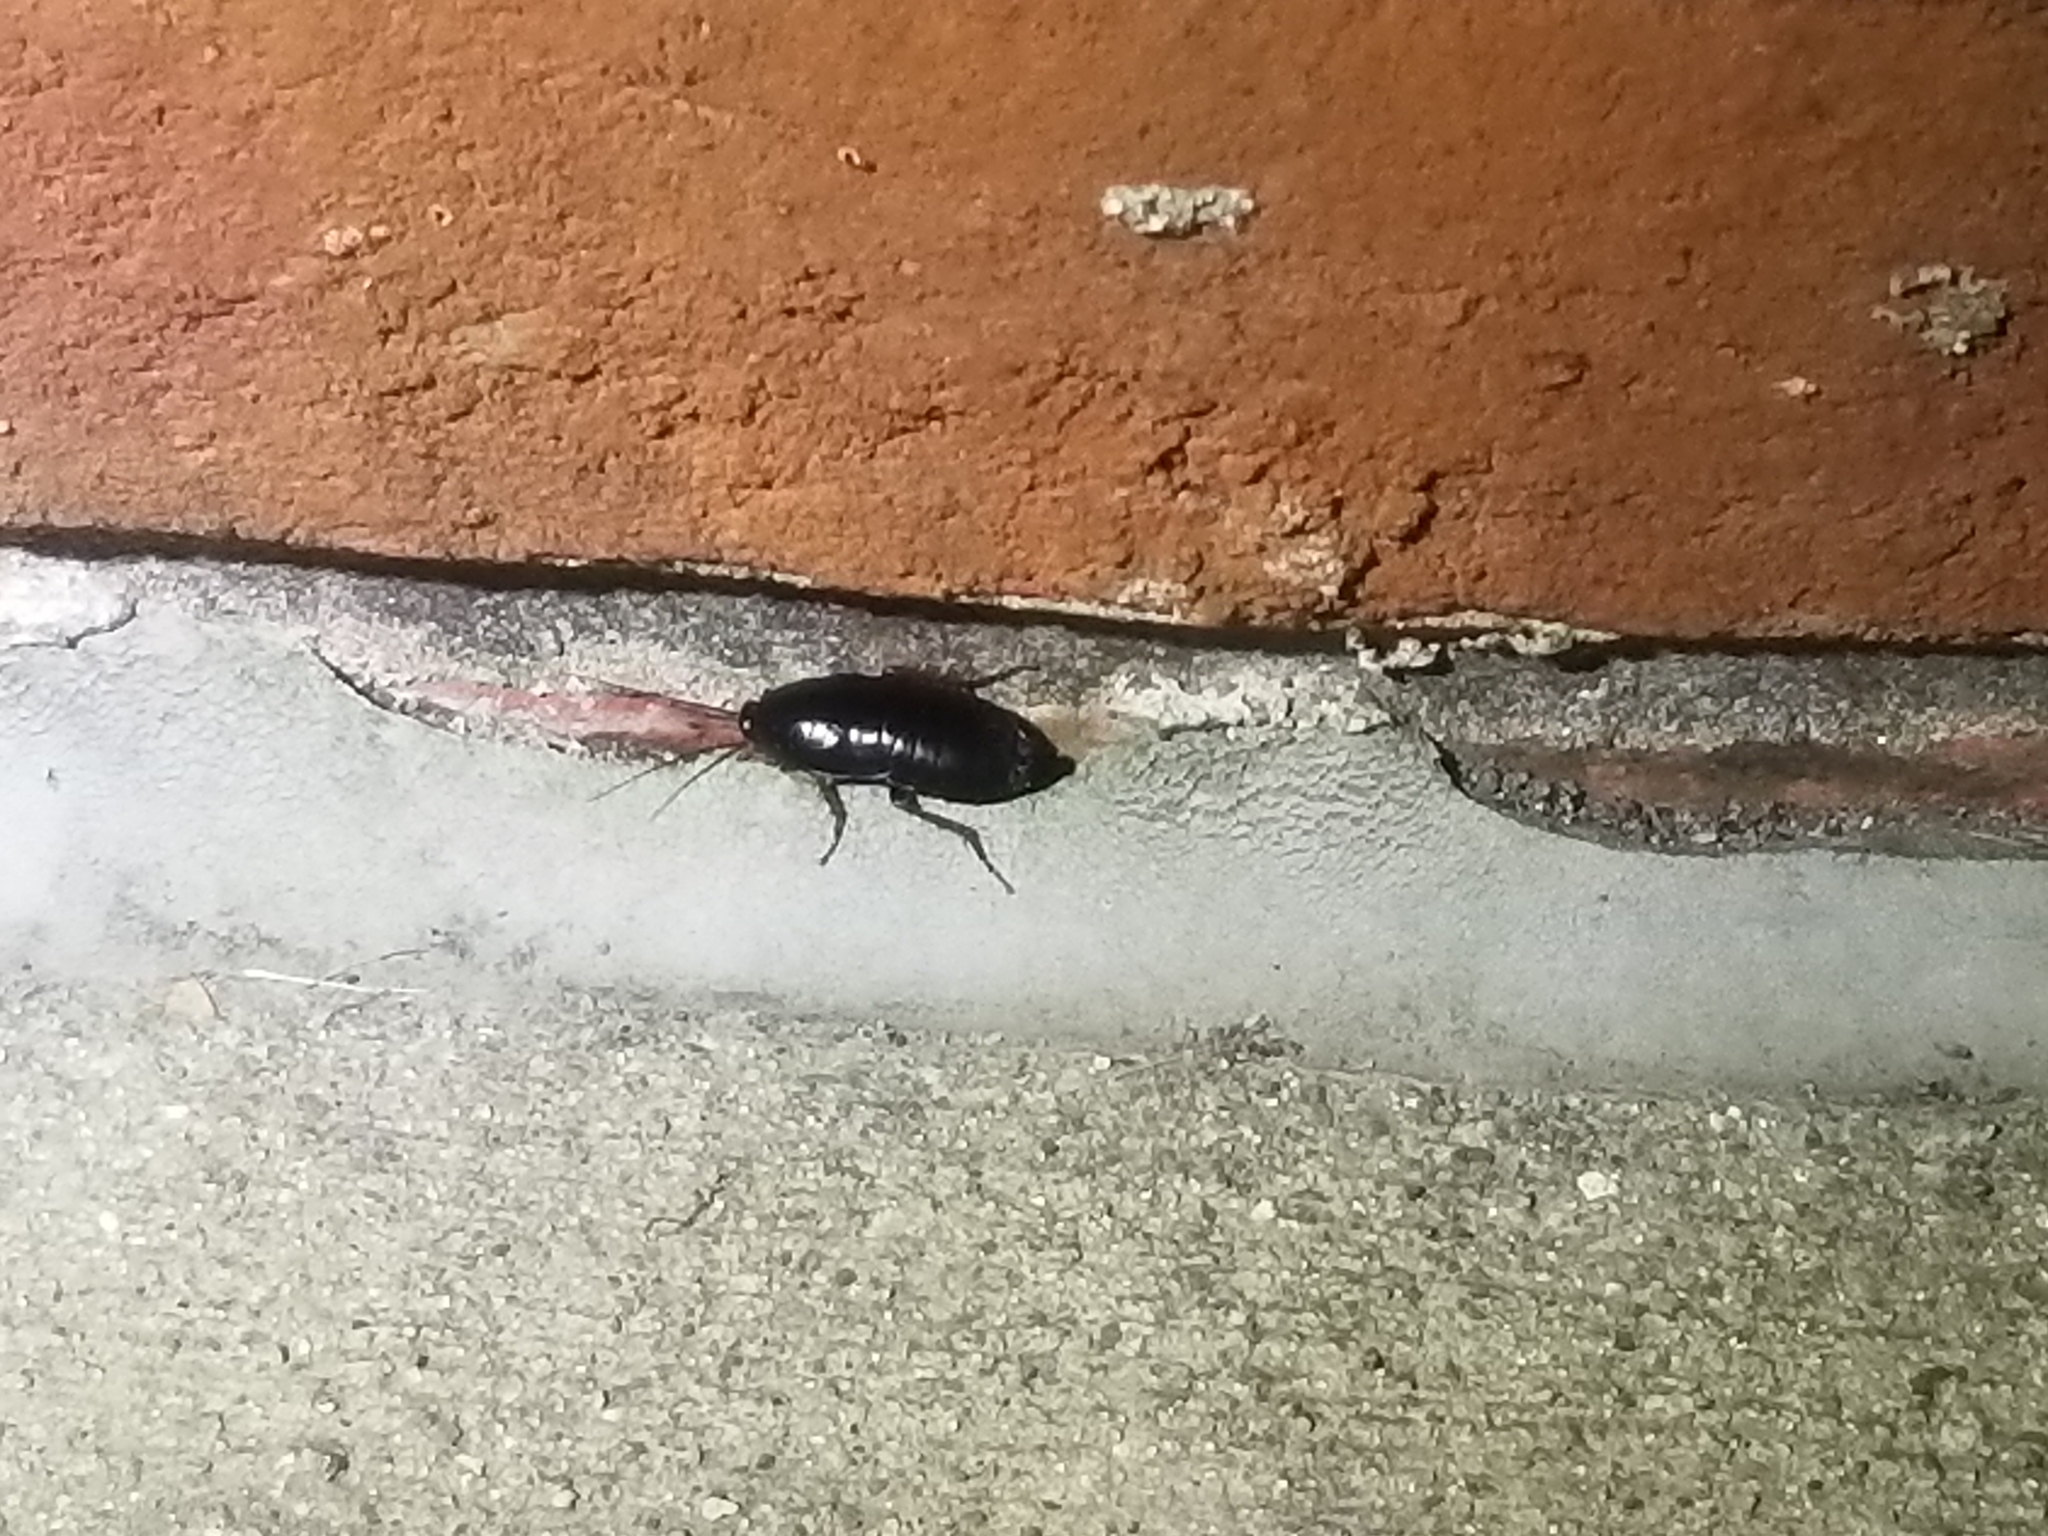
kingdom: Animalia
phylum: Arthropoda
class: Insecta
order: Blattodea
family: Blattidae
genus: Blatta
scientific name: Blatta orientalis
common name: Oriental cockroach
